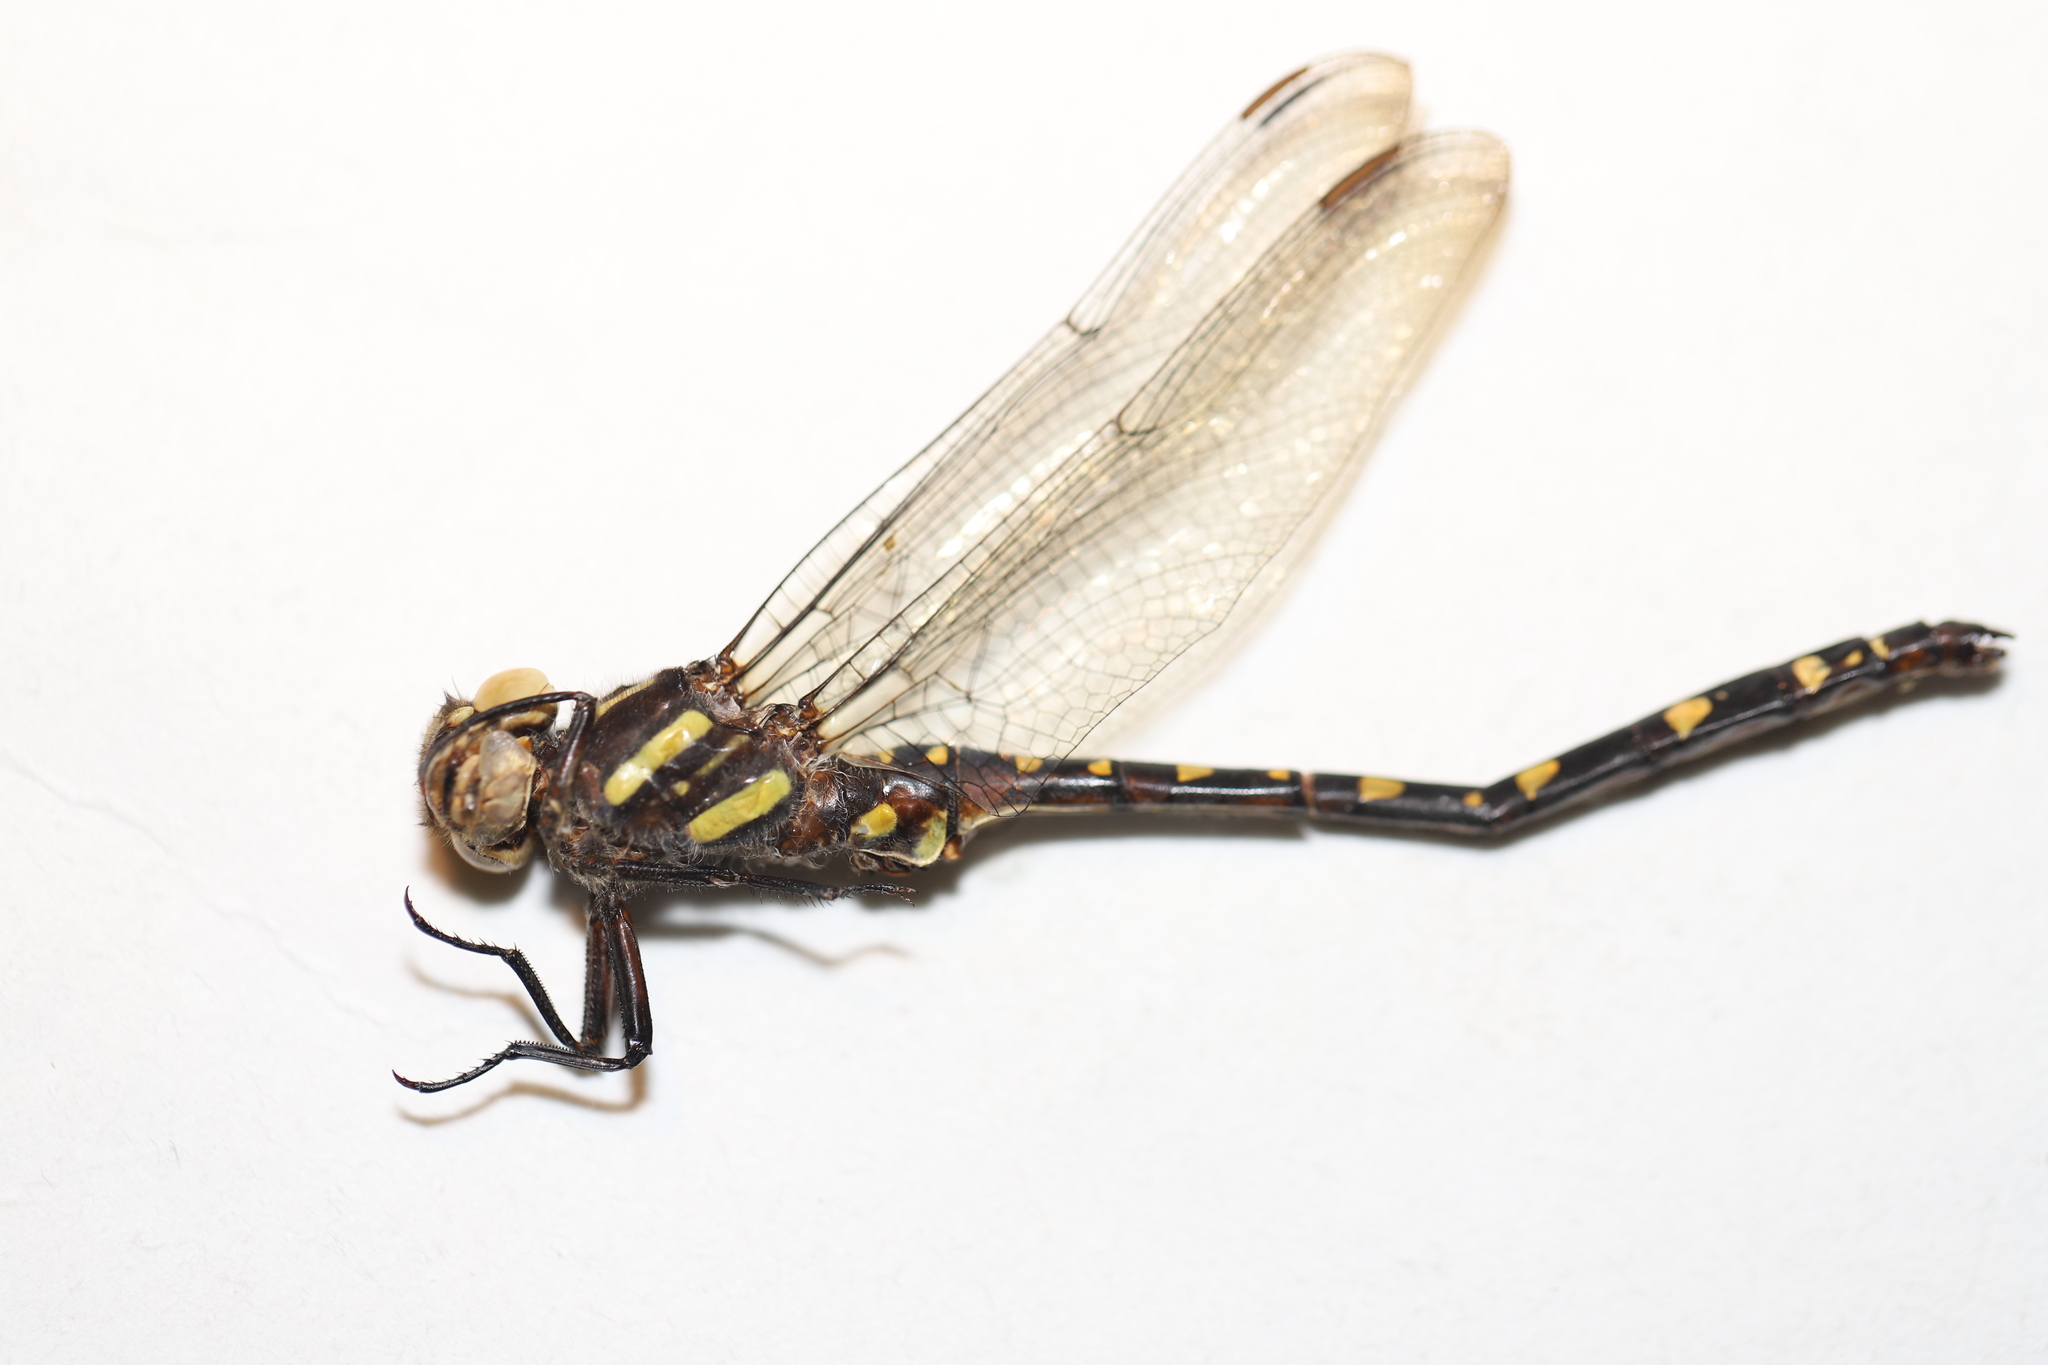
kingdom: Animalia
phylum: Arthropoda
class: Insecta
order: Odonata
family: Cordulegastridae
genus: Cordulegaster
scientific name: Cordulegaster maculata
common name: Twin-spotted spiketail
